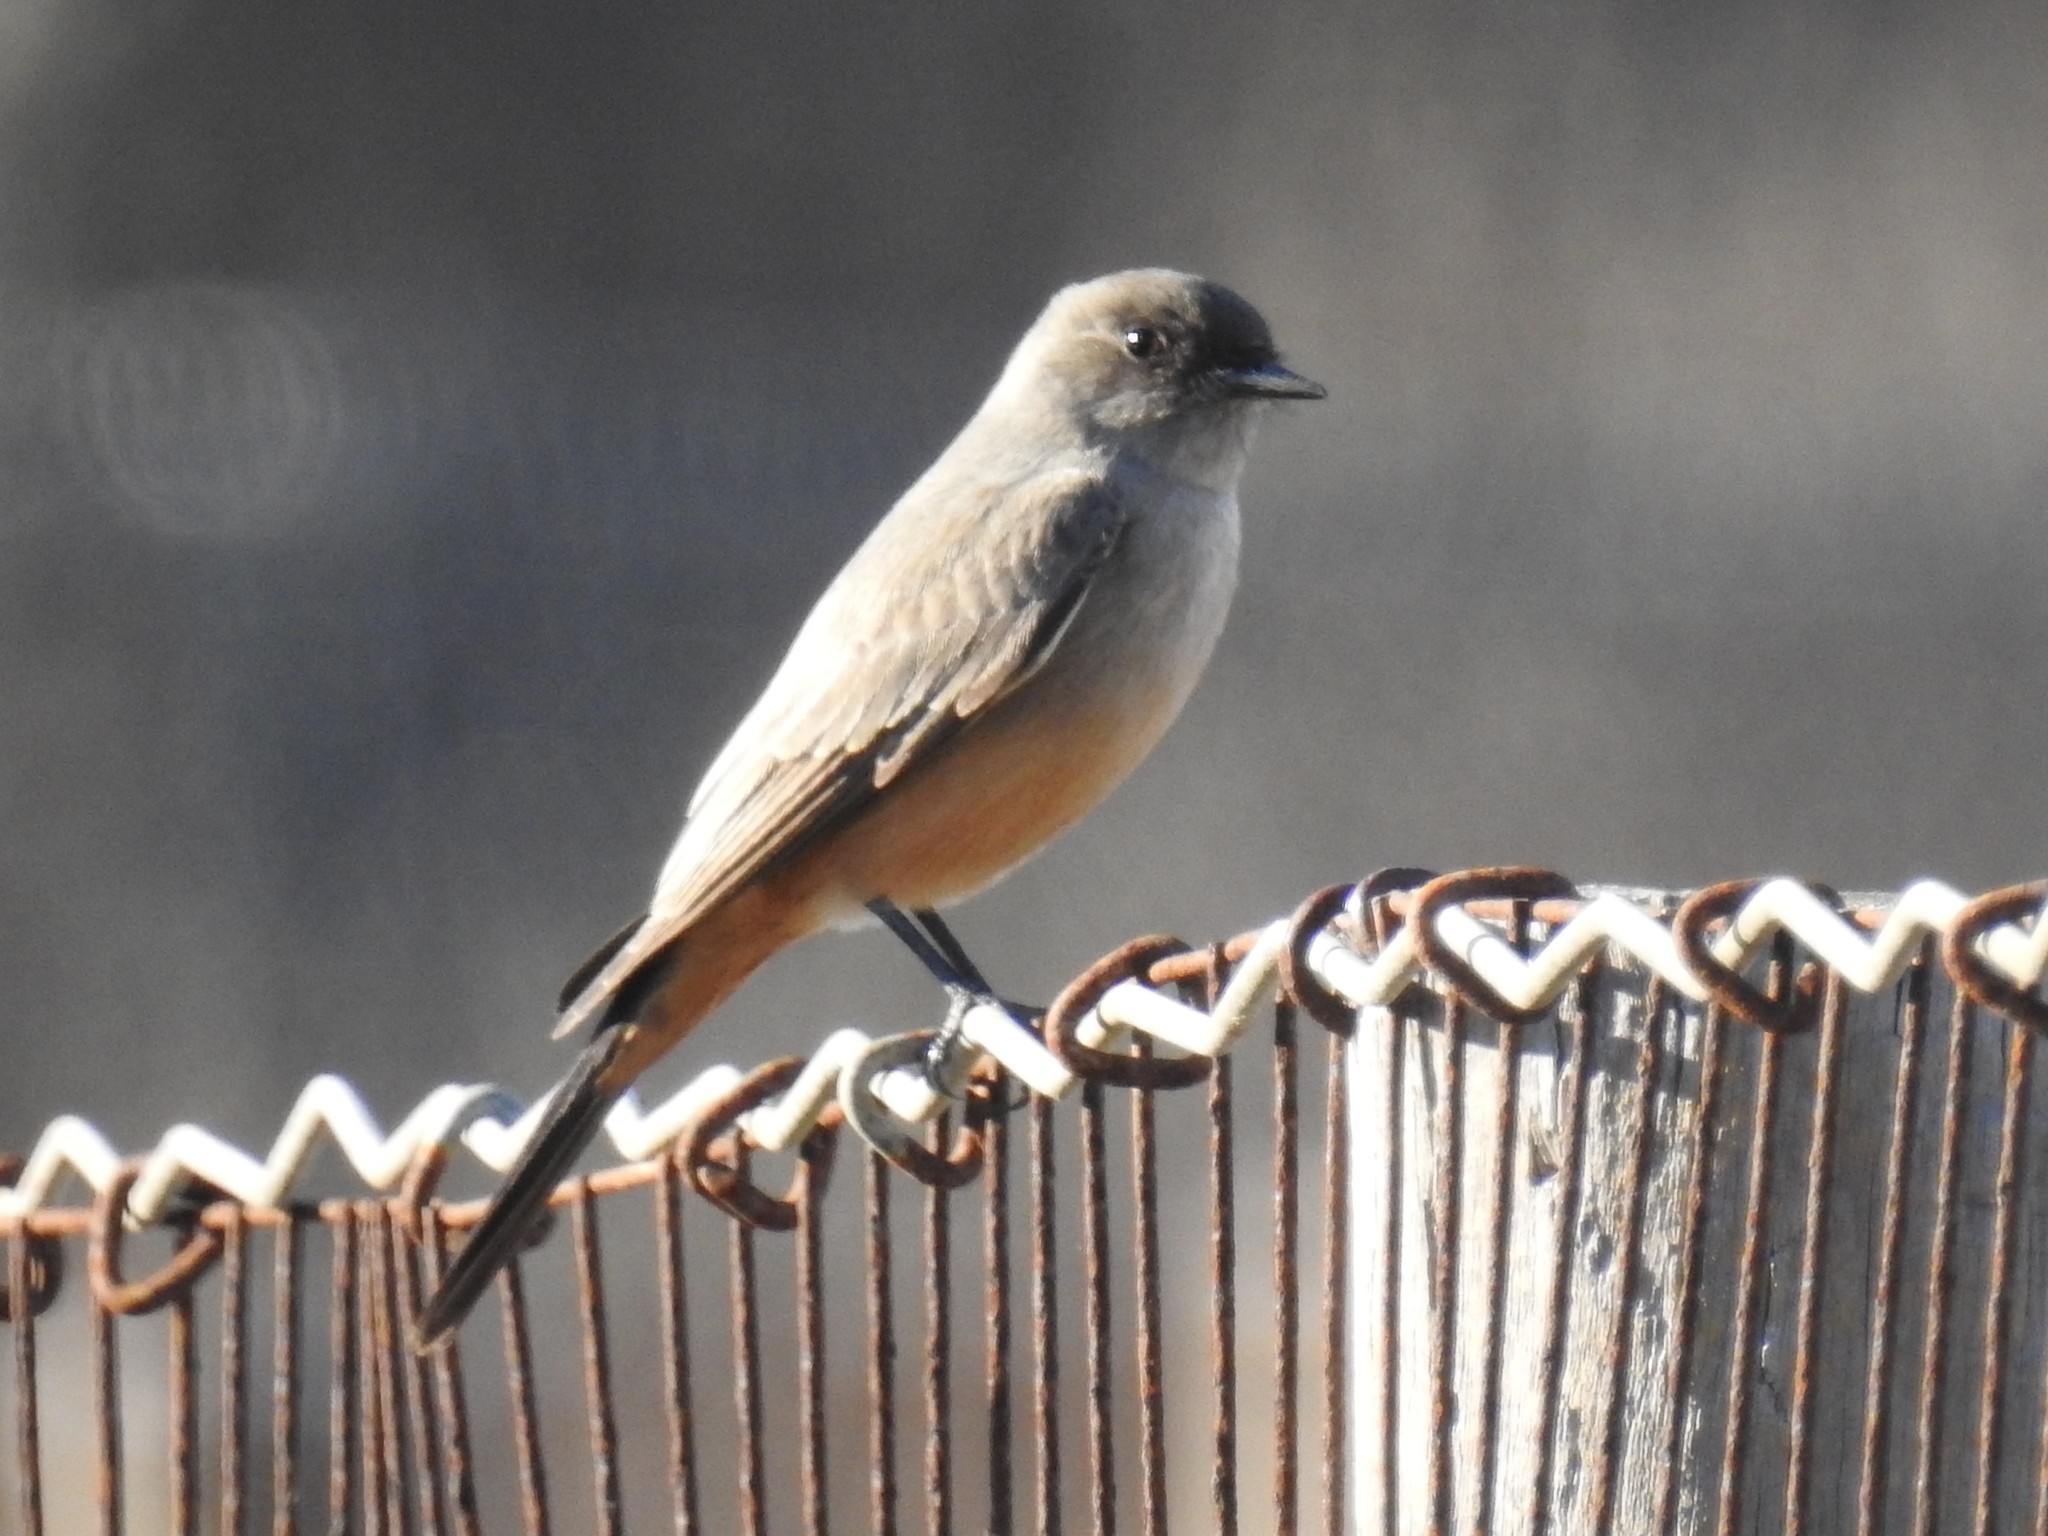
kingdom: Animalia
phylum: Chordata
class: Aves
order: Passeriformes
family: Tyrannidae
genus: Sayornis
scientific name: Sayornis saya
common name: Say's phoebe
